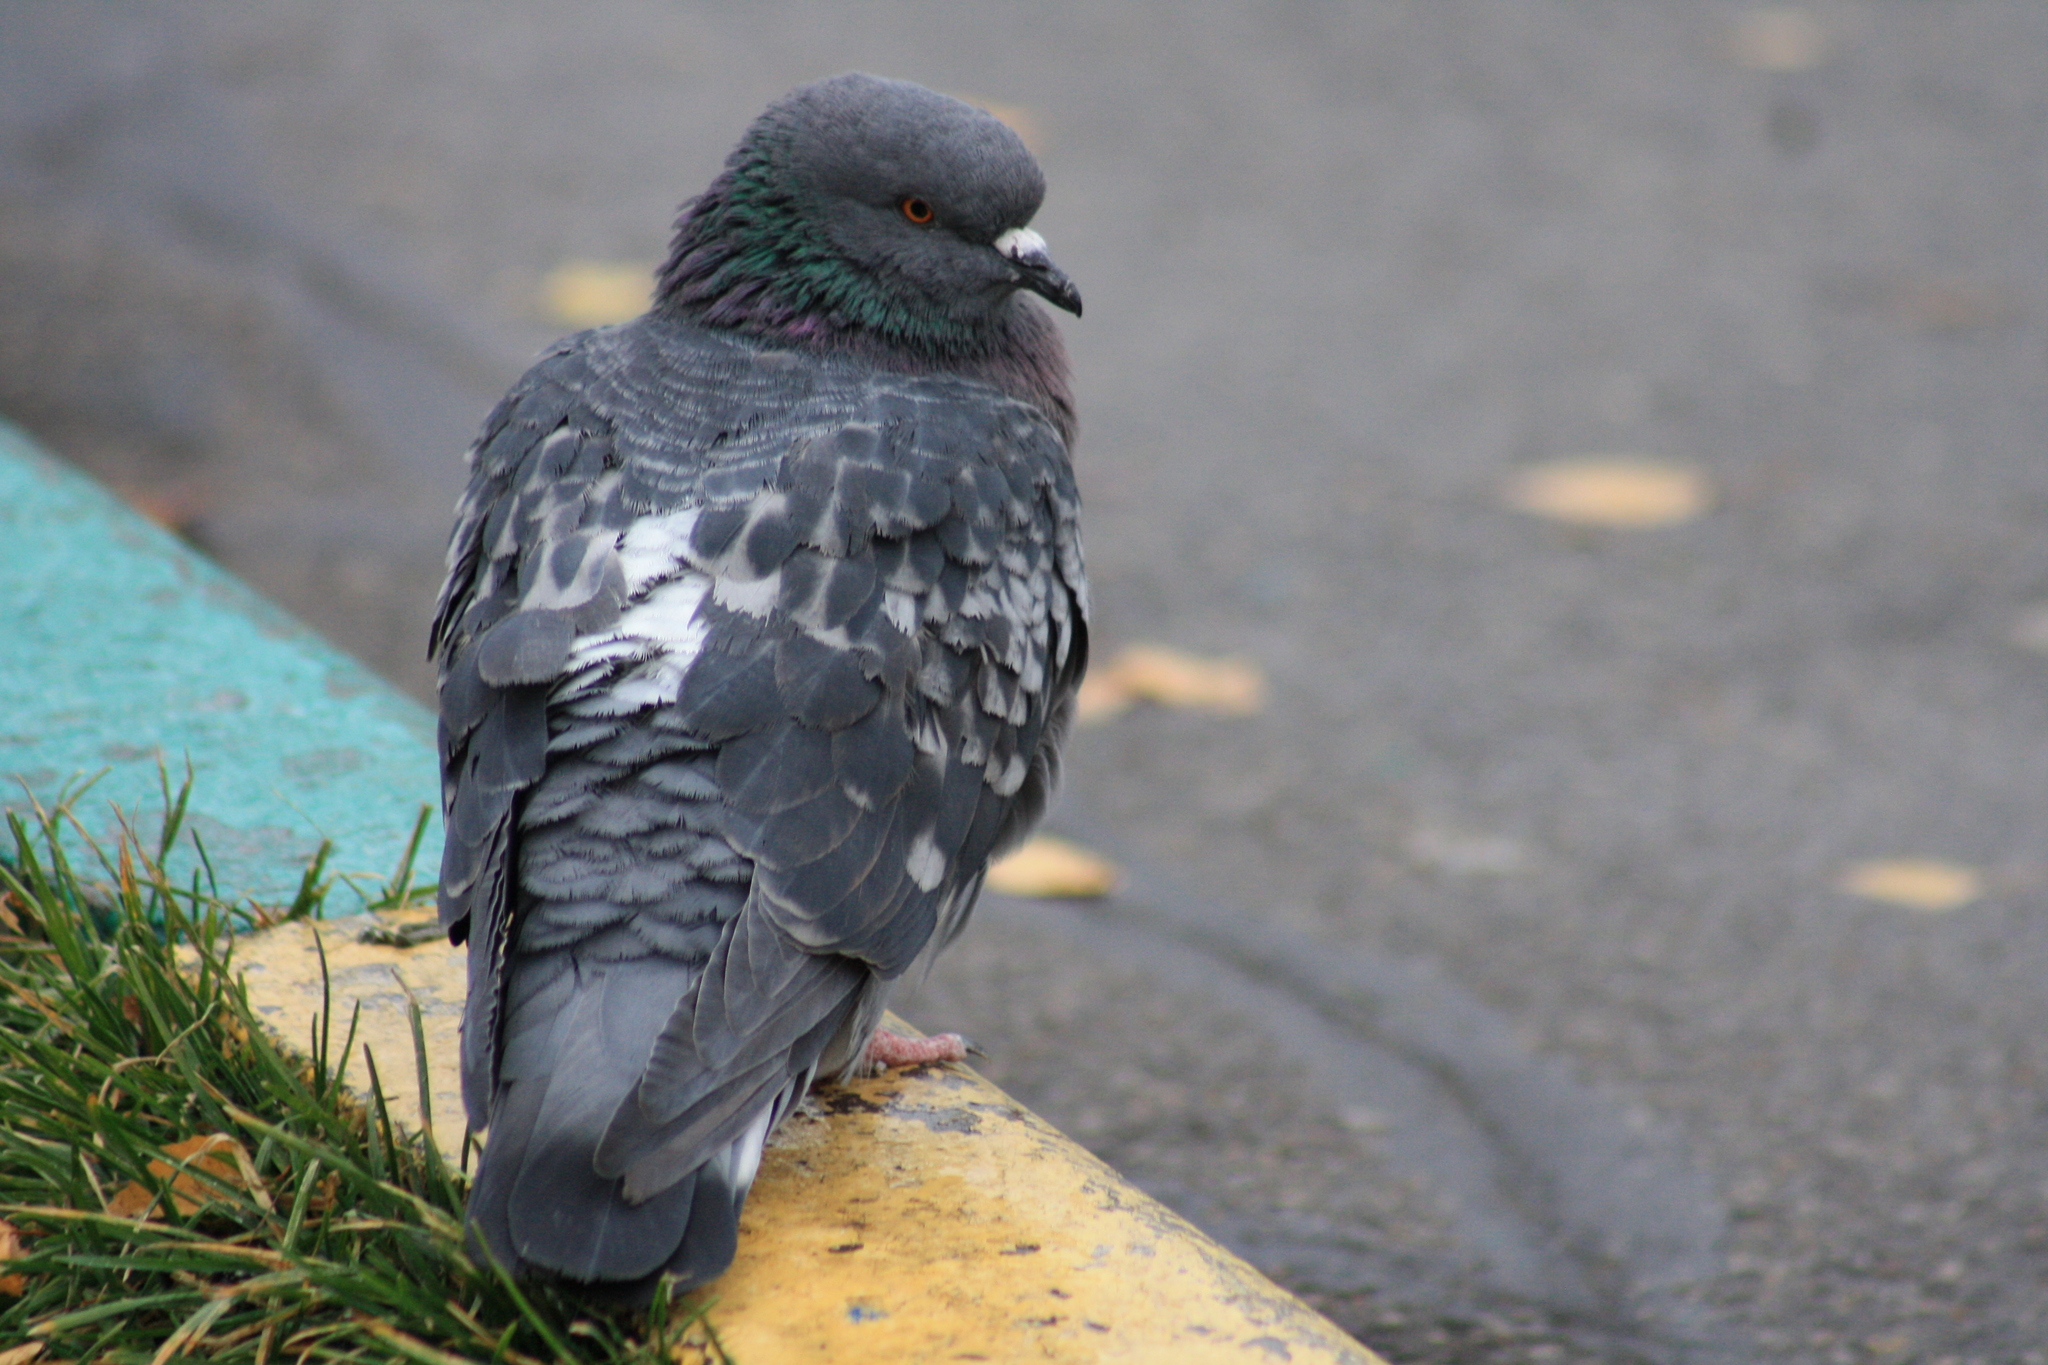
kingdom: Animalia
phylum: Chordata
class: Aves
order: Columbiformes
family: Columbidae
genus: Columba
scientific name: Columba livia
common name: Rock pigeon
